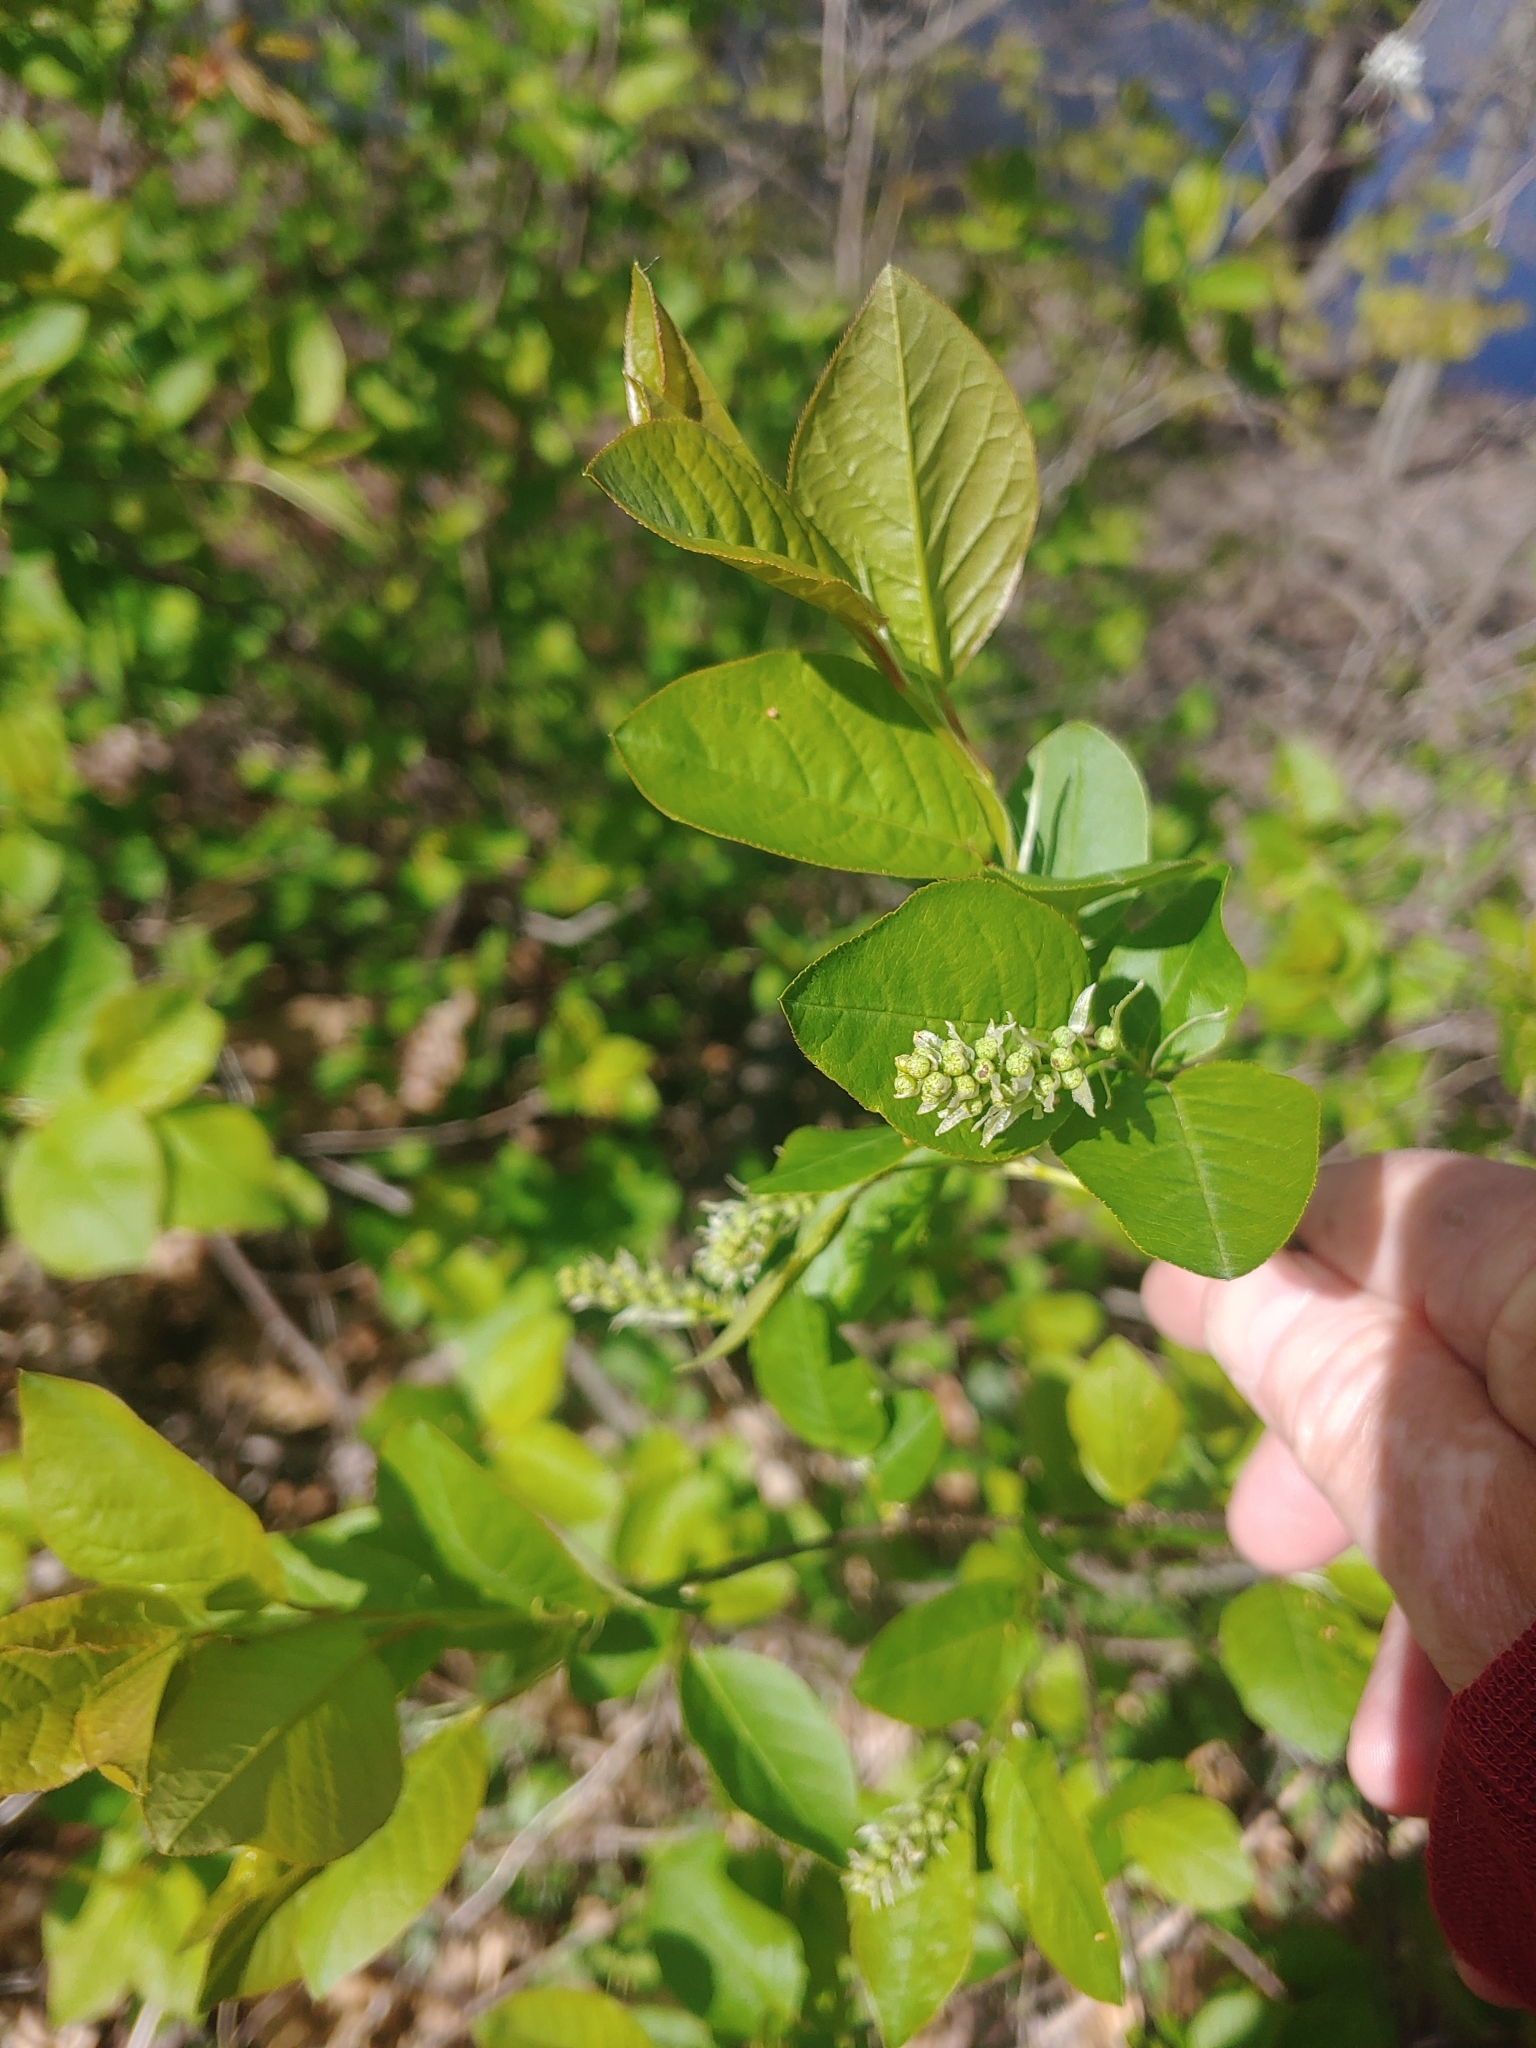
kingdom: Plantae
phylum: Tracheophyta
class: Magnoliopsida
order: Ericales
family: Clethraceae
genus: Clethra
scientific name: Clethra alnifolia
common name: Sweet pepperbush
